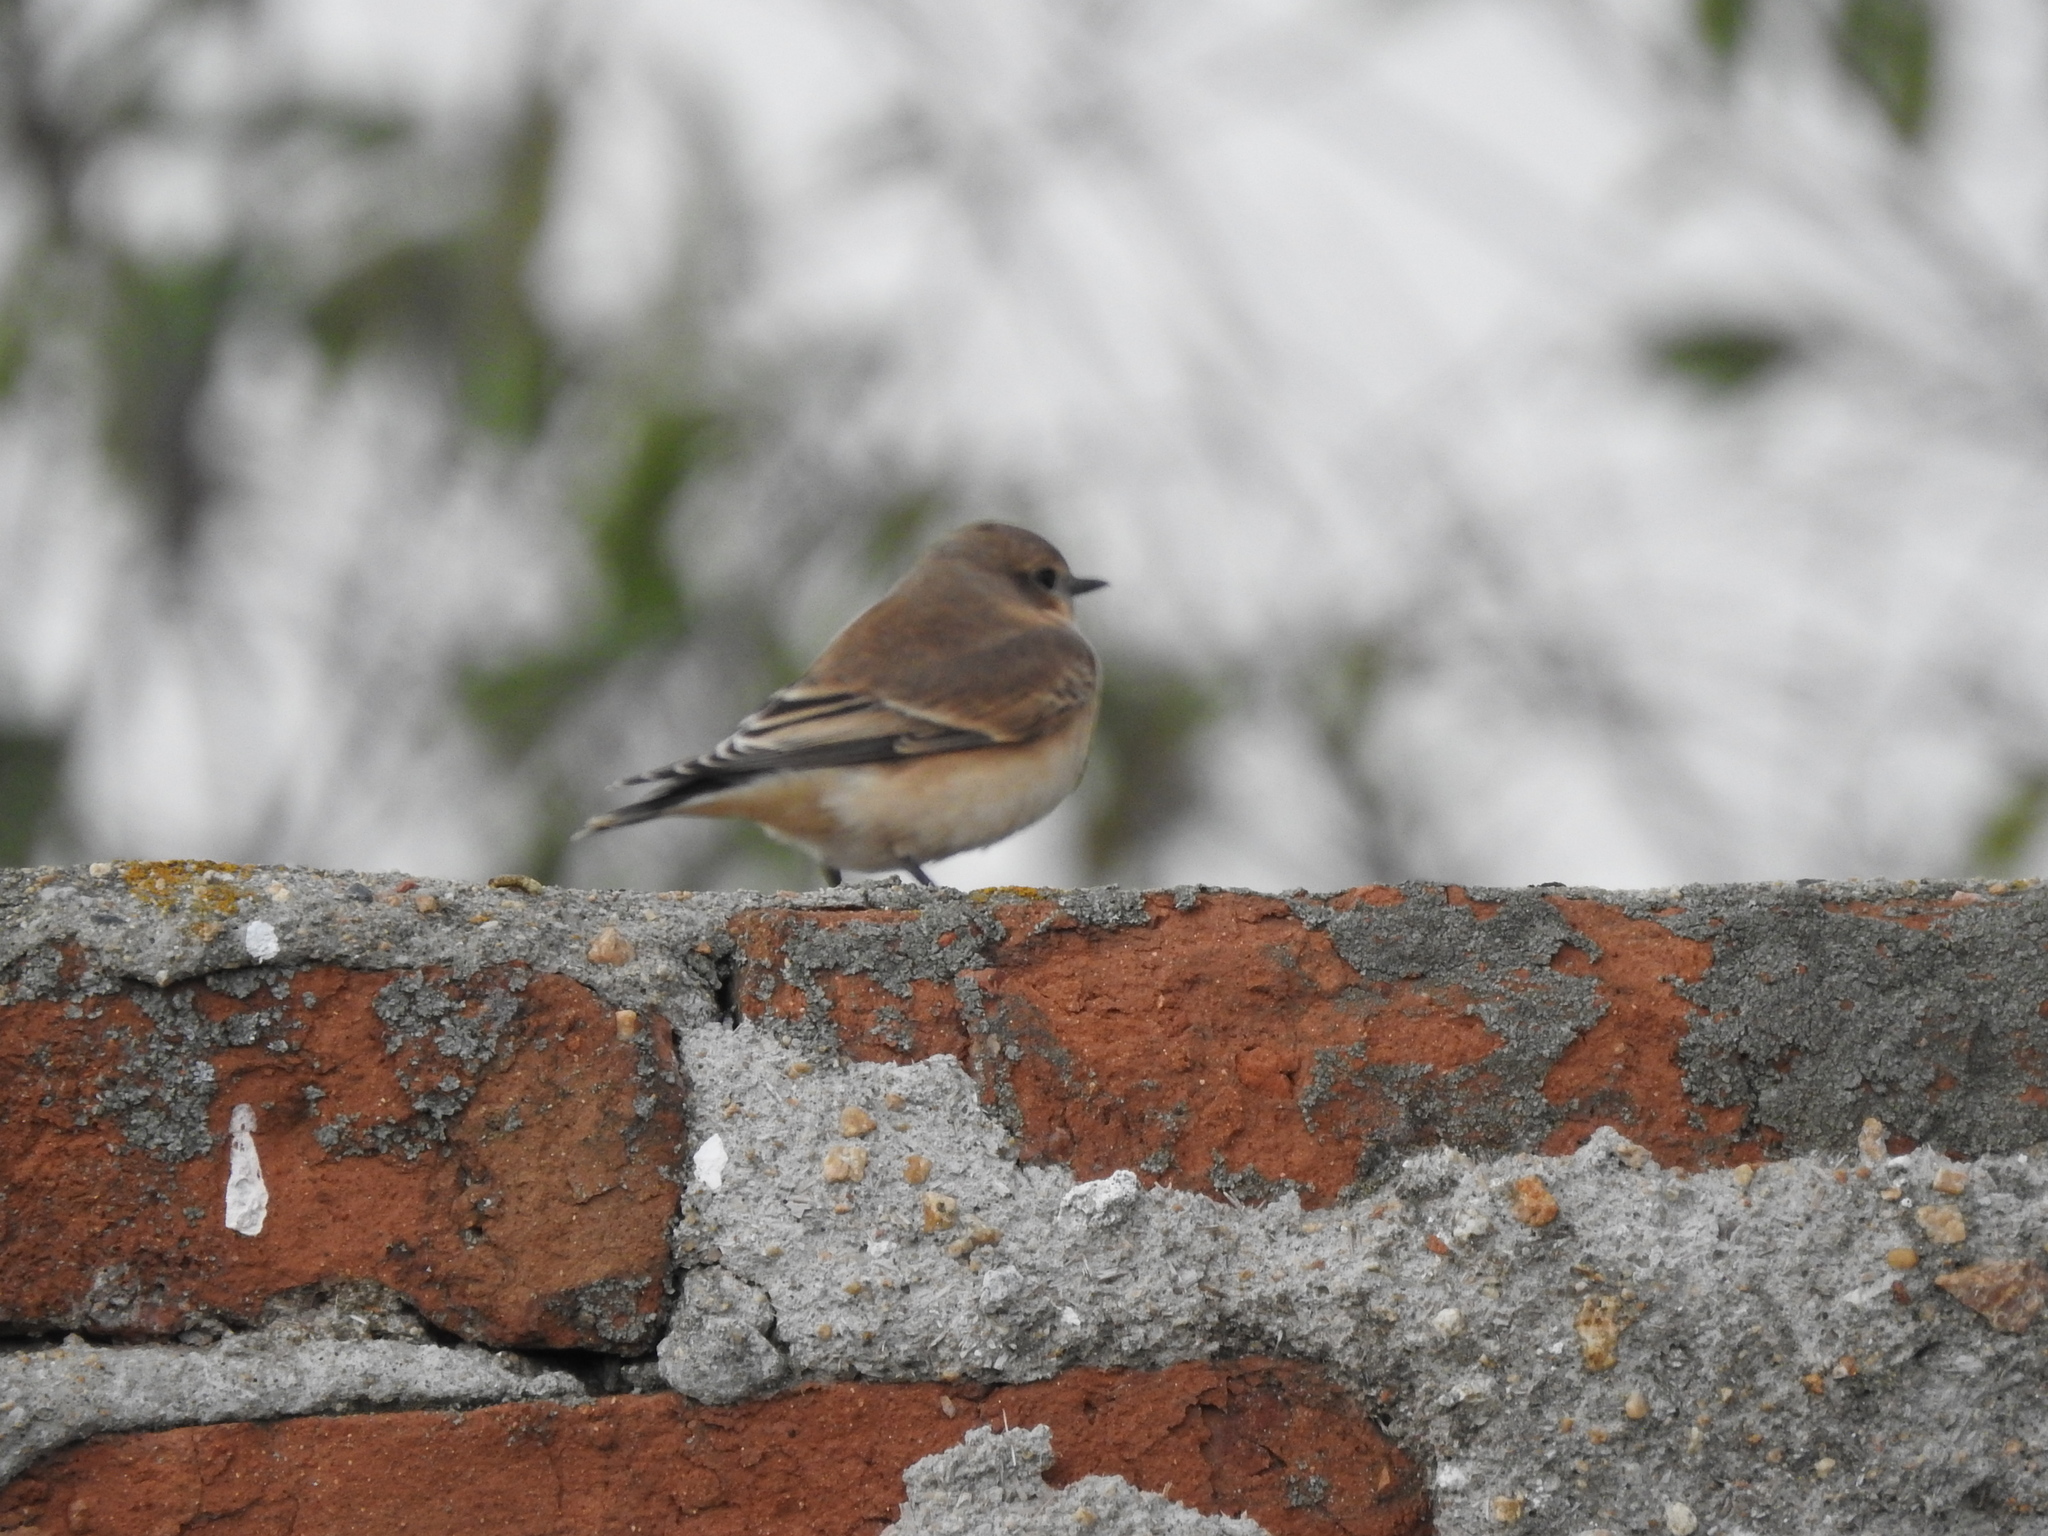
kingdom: Animalia
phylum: Chordata
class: Aves
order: Passeriformes
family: Muscicapidae
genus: Oenanthe
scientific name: Oenanthe oenanthe
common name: Northern wheatear
